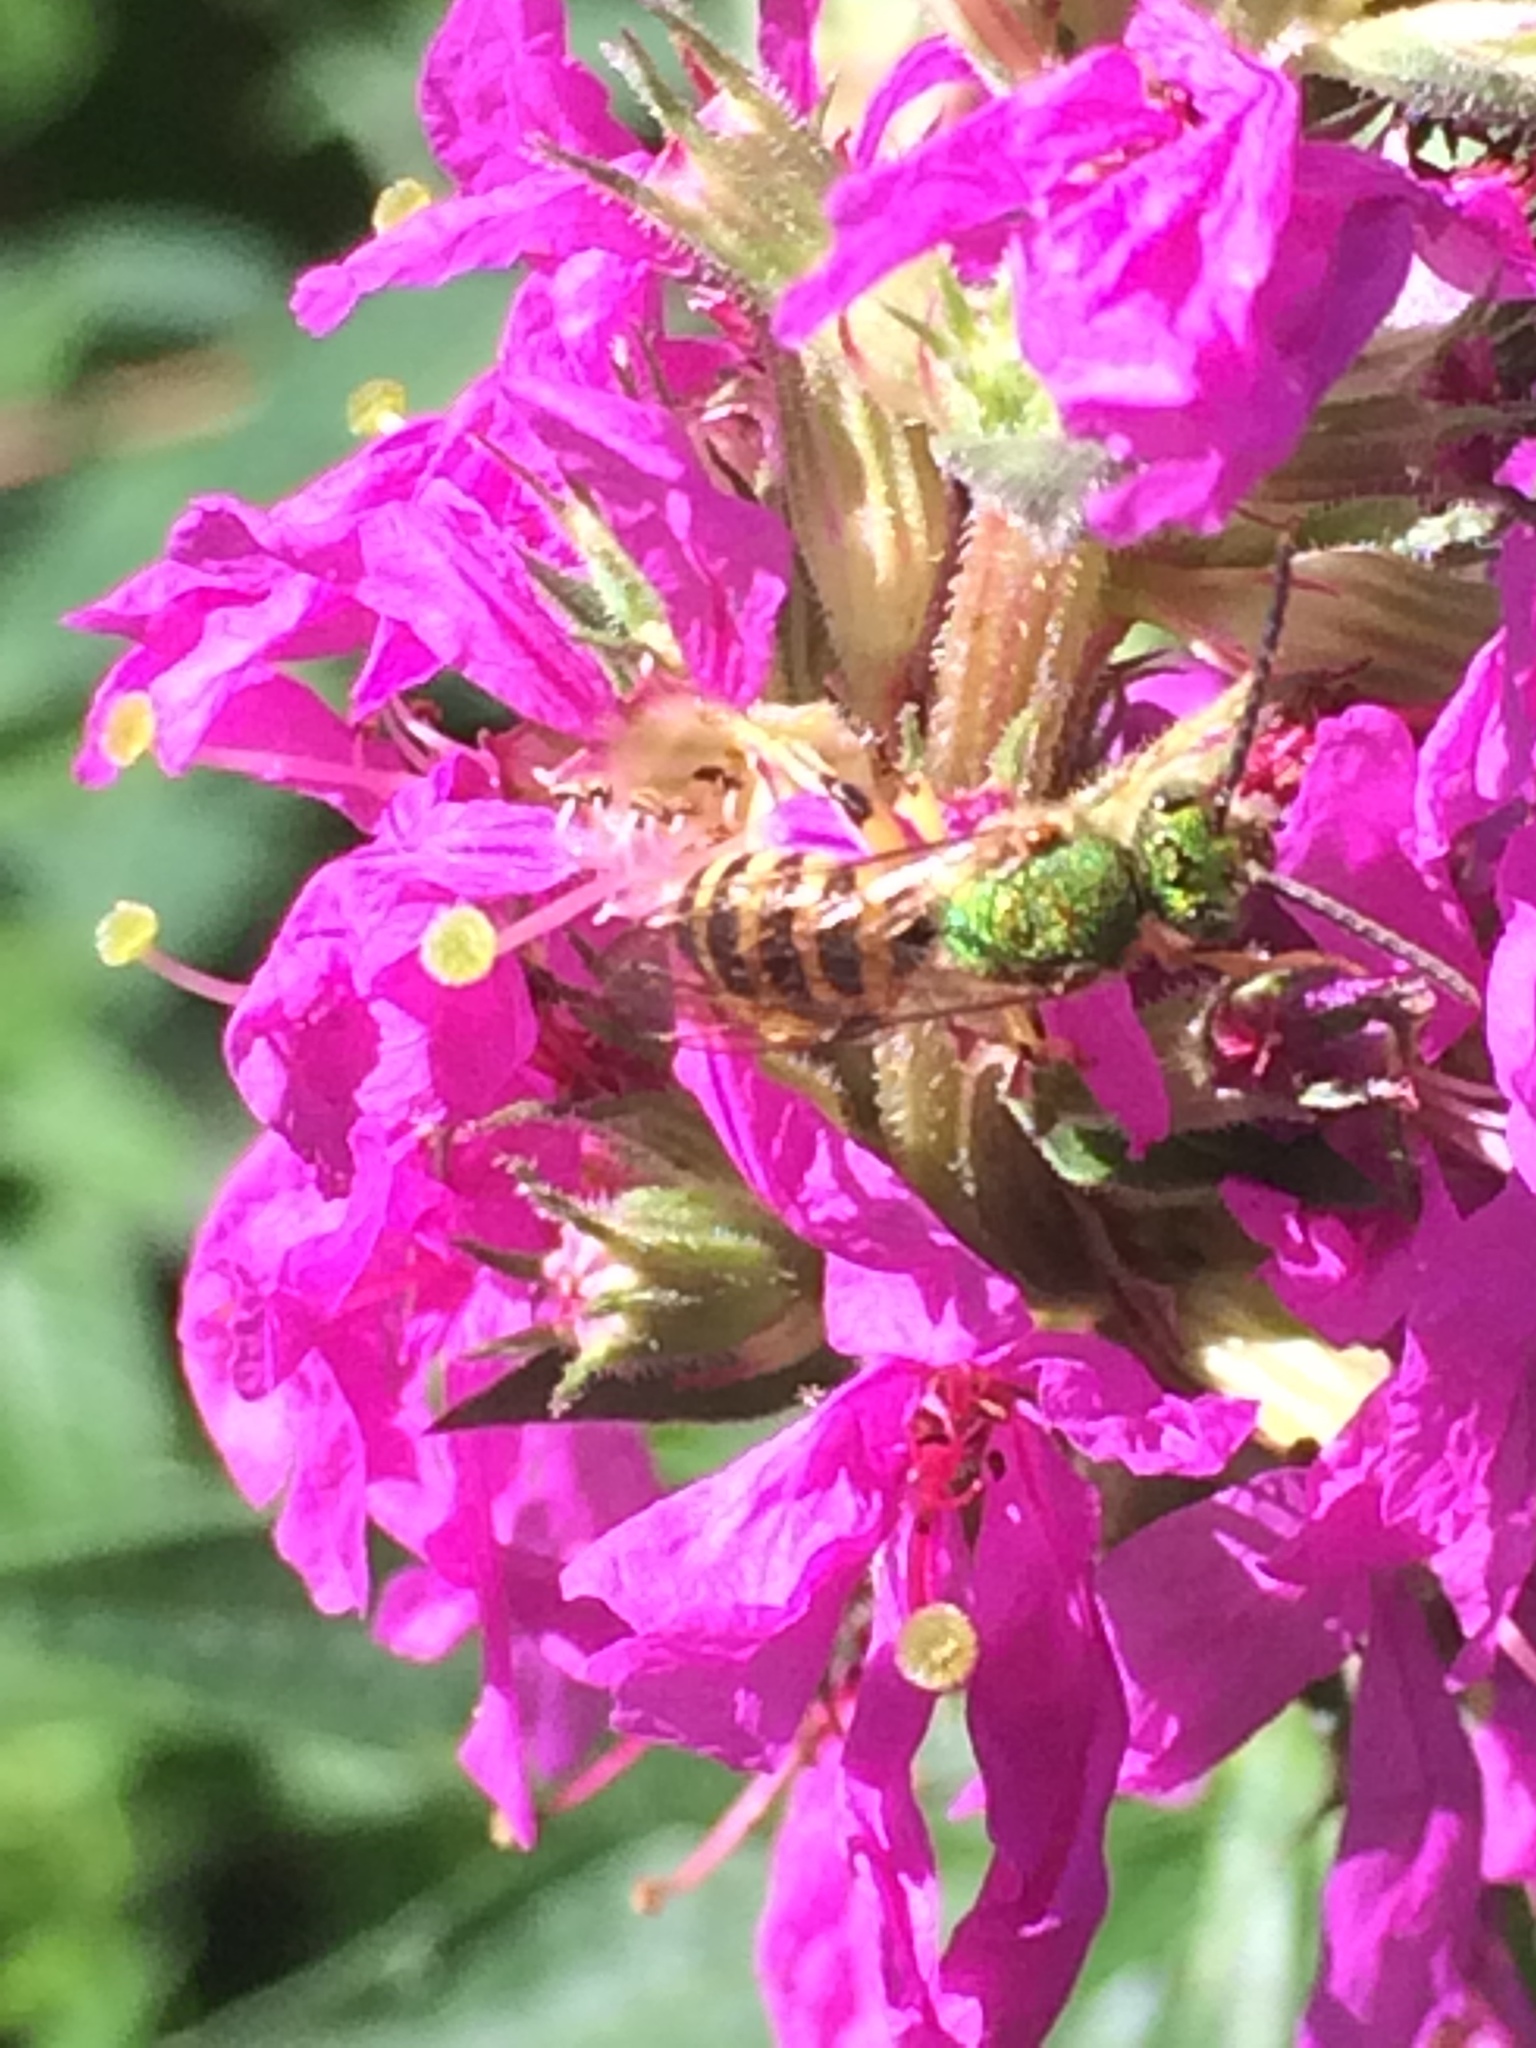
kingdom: Animalia
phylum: Arthropoda
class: Insecta
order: Hymenoptera
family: Halictidae
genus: Agapostemon
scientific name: Agapostemon virescens
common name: Bicolored striped sweat bee
